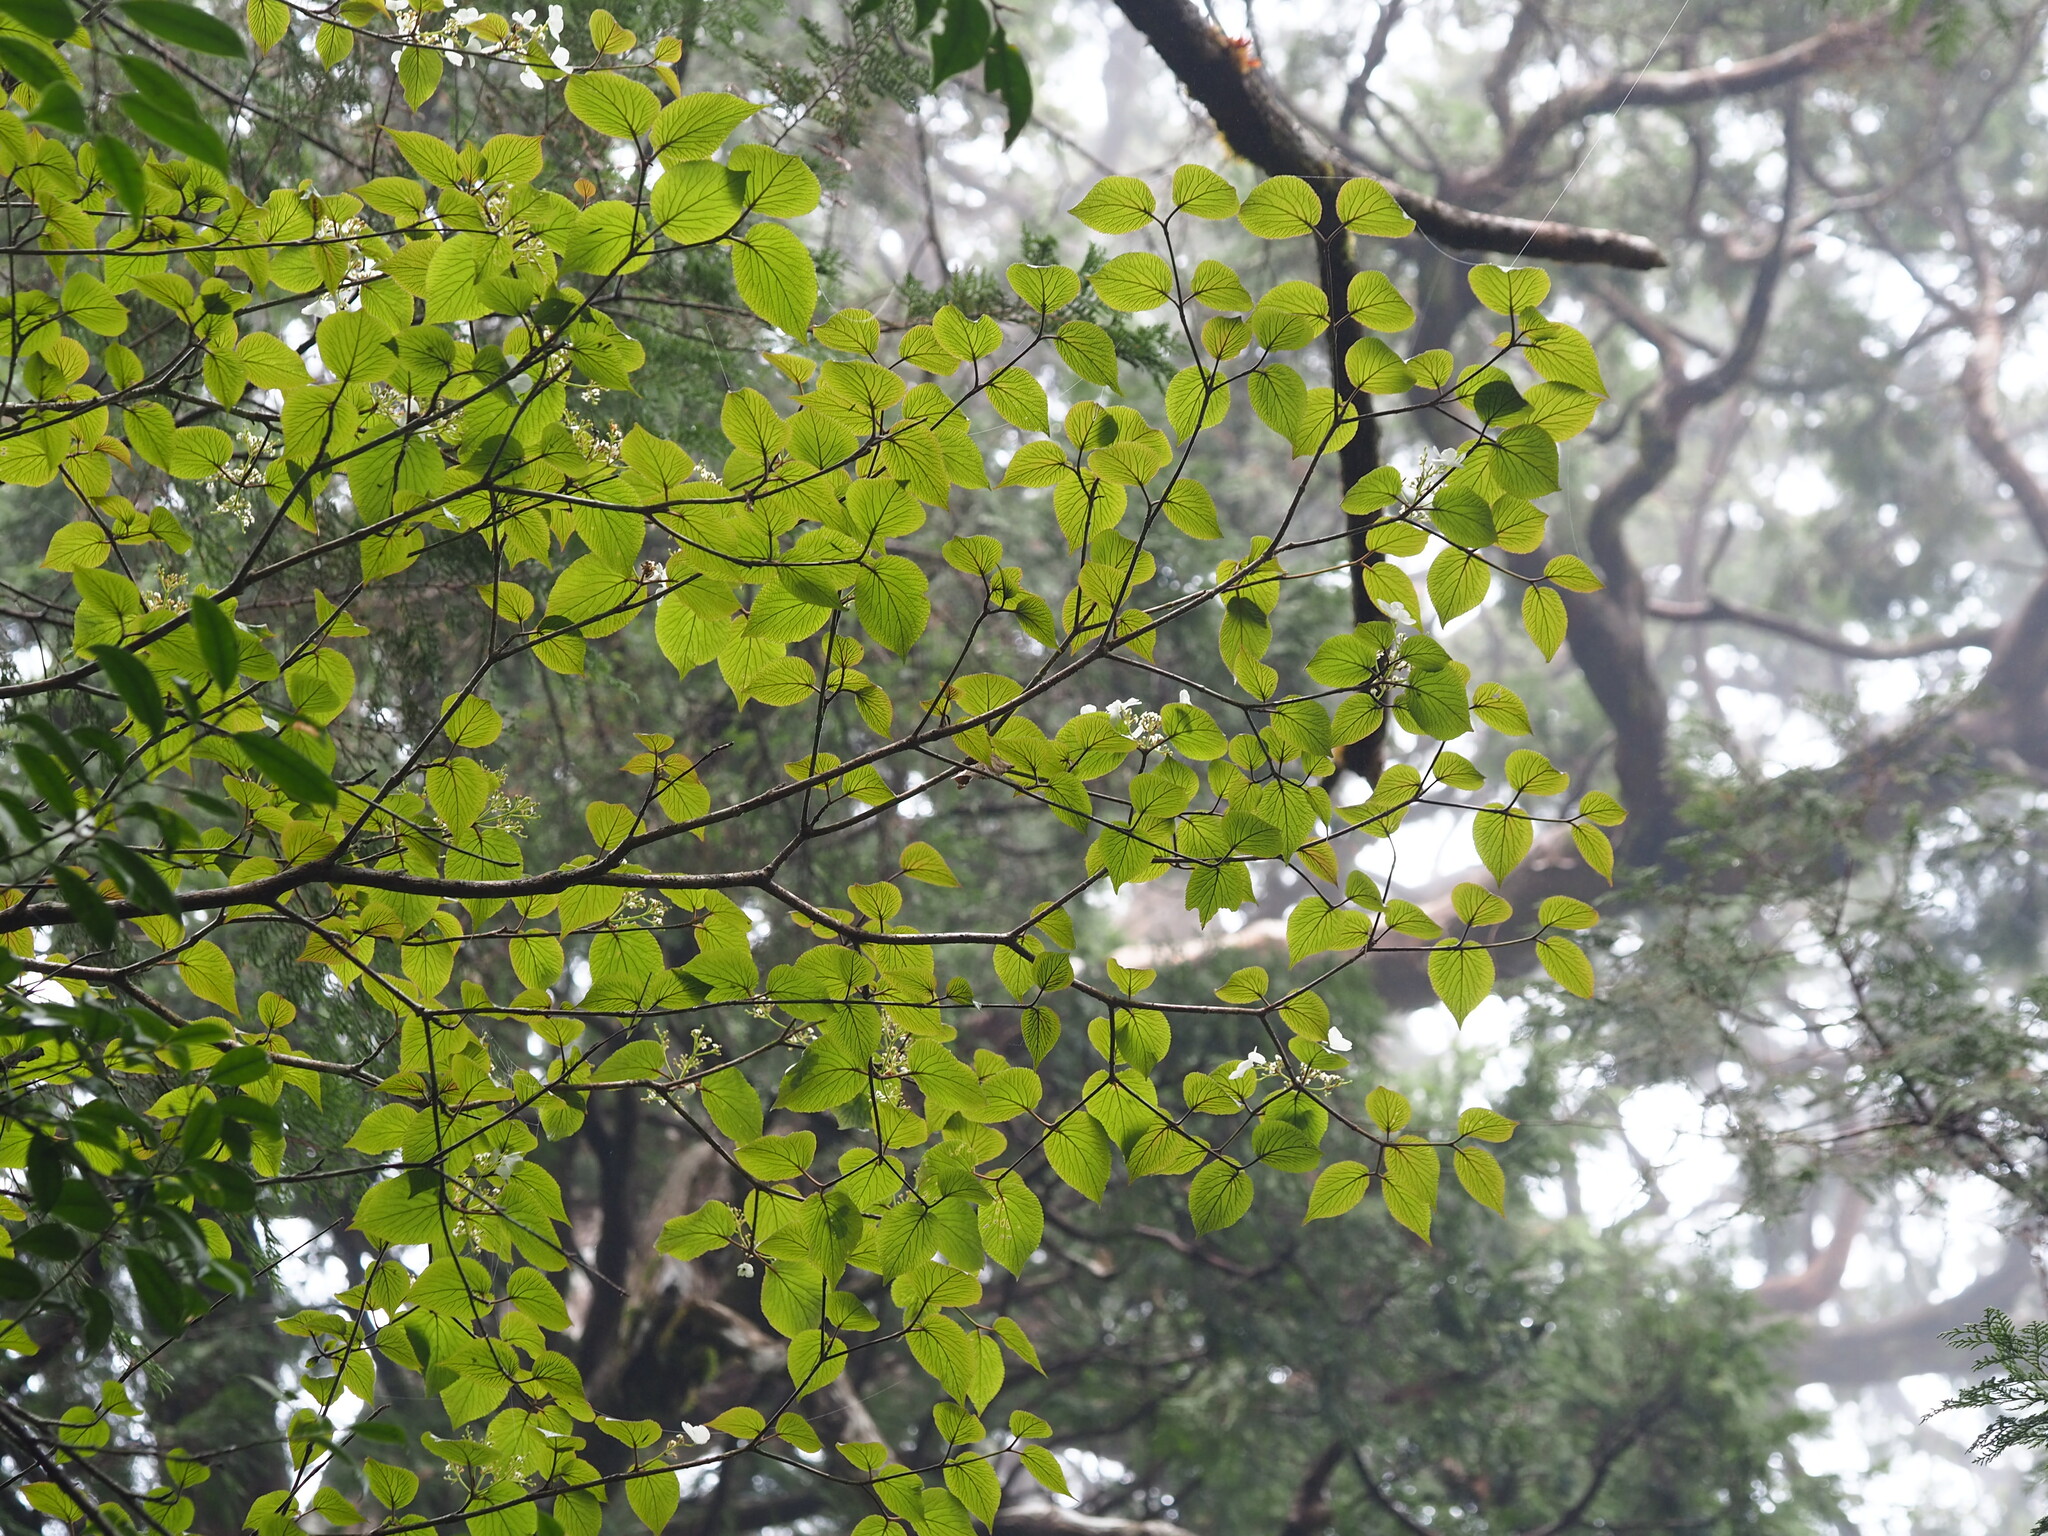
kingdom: Plantae
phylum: Tracheophyta
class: Magnoliopsida
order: Dipsacales
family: Viburnaceae
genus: Viburnum
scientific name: Viburnum furcatum
